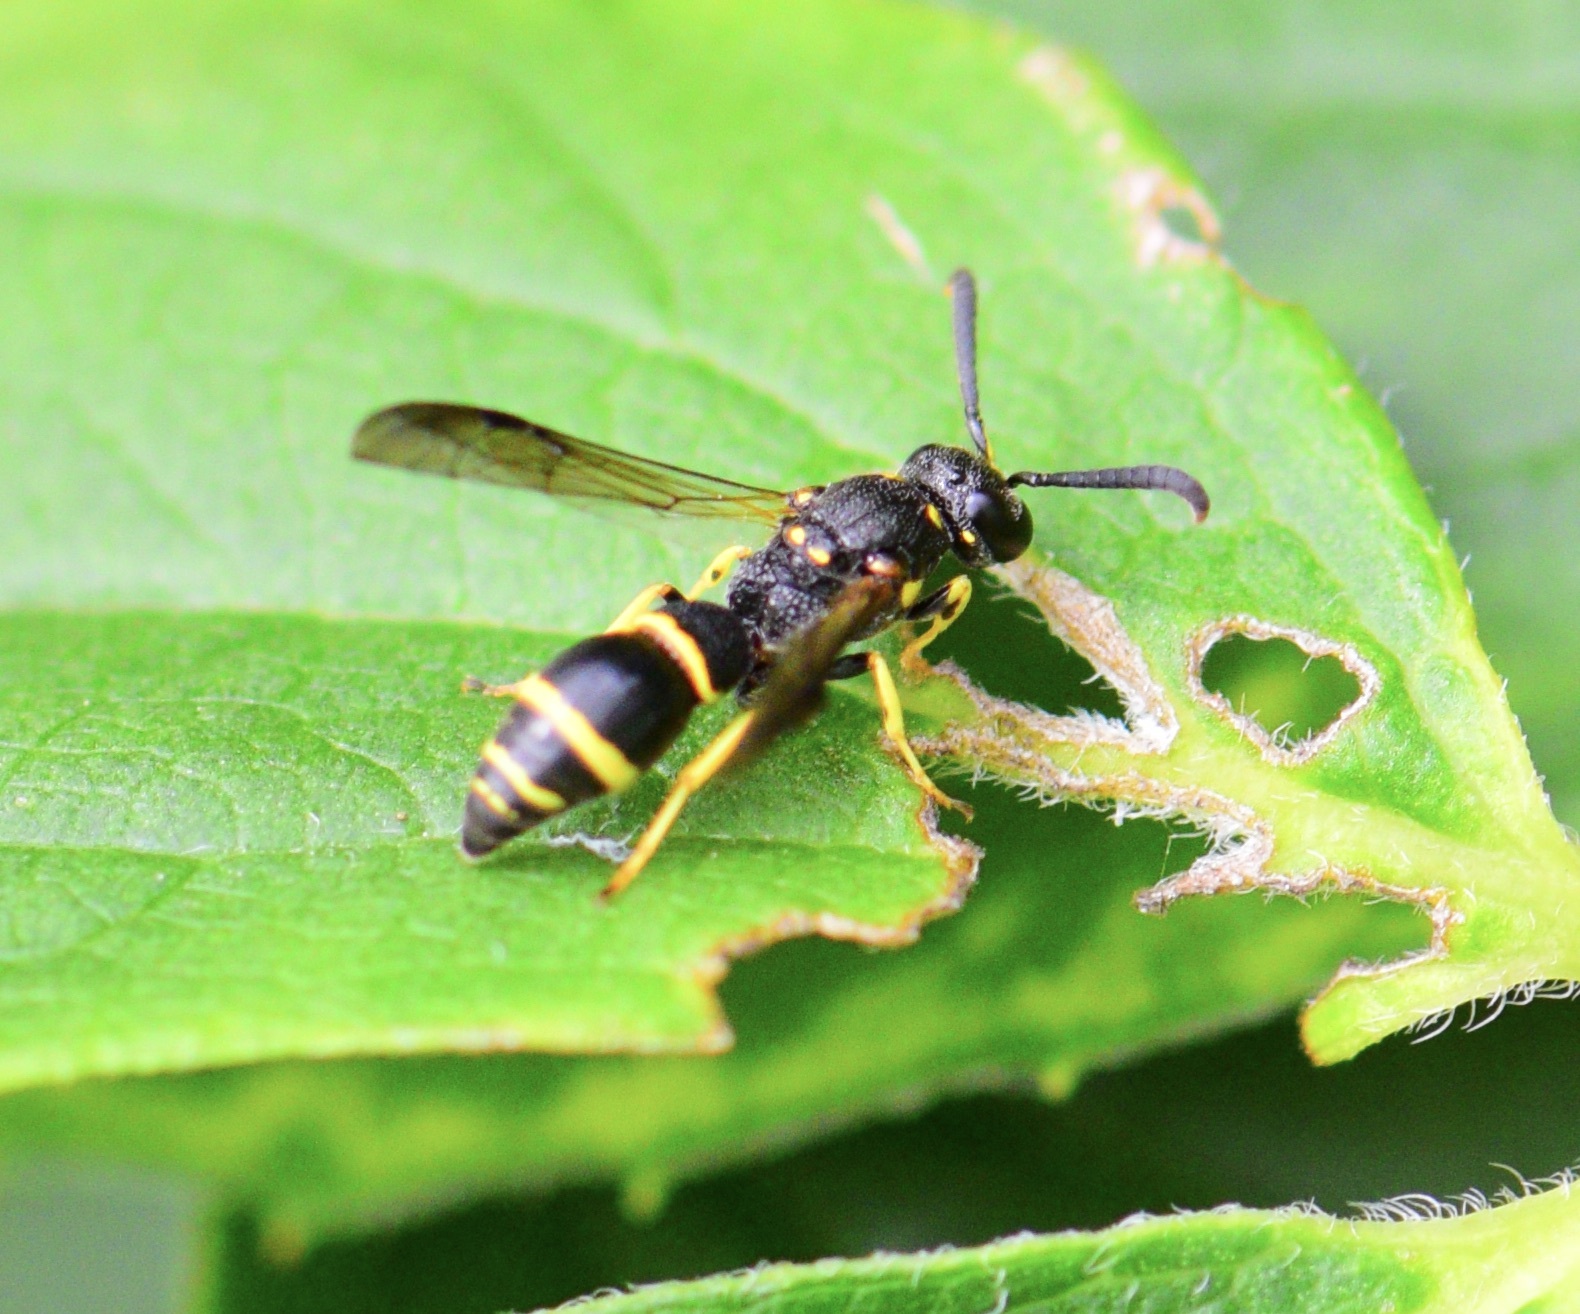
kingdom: Animalia
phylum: Arthropoda
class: Insecta
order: Hymenoptera
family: Eumenidae
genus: Symmorphus
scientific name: Symmorphus
